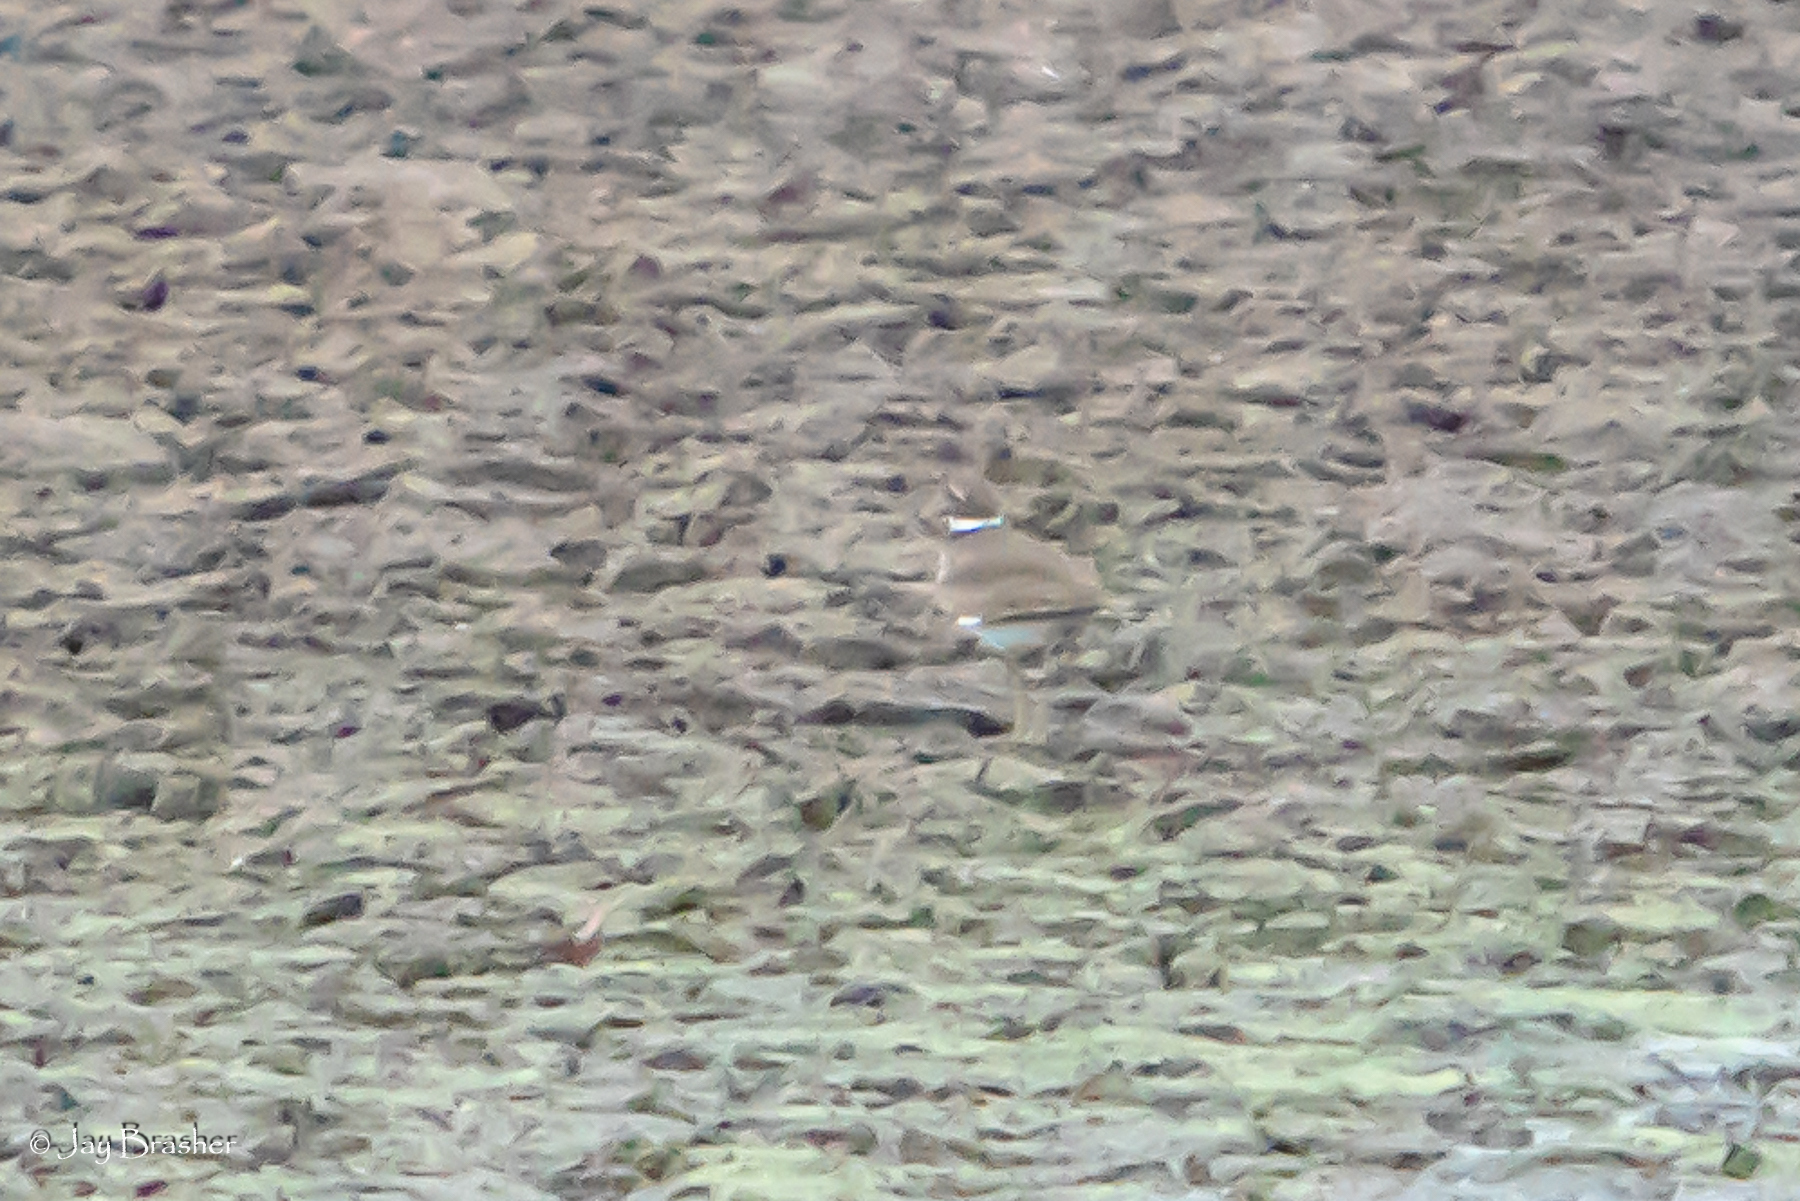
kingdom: Animalia
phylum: Chordata
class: Aves
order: Charadriiformes
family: Charadriidae
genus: Charadrius
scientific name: Charadrius vociferus
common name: Killdeer
